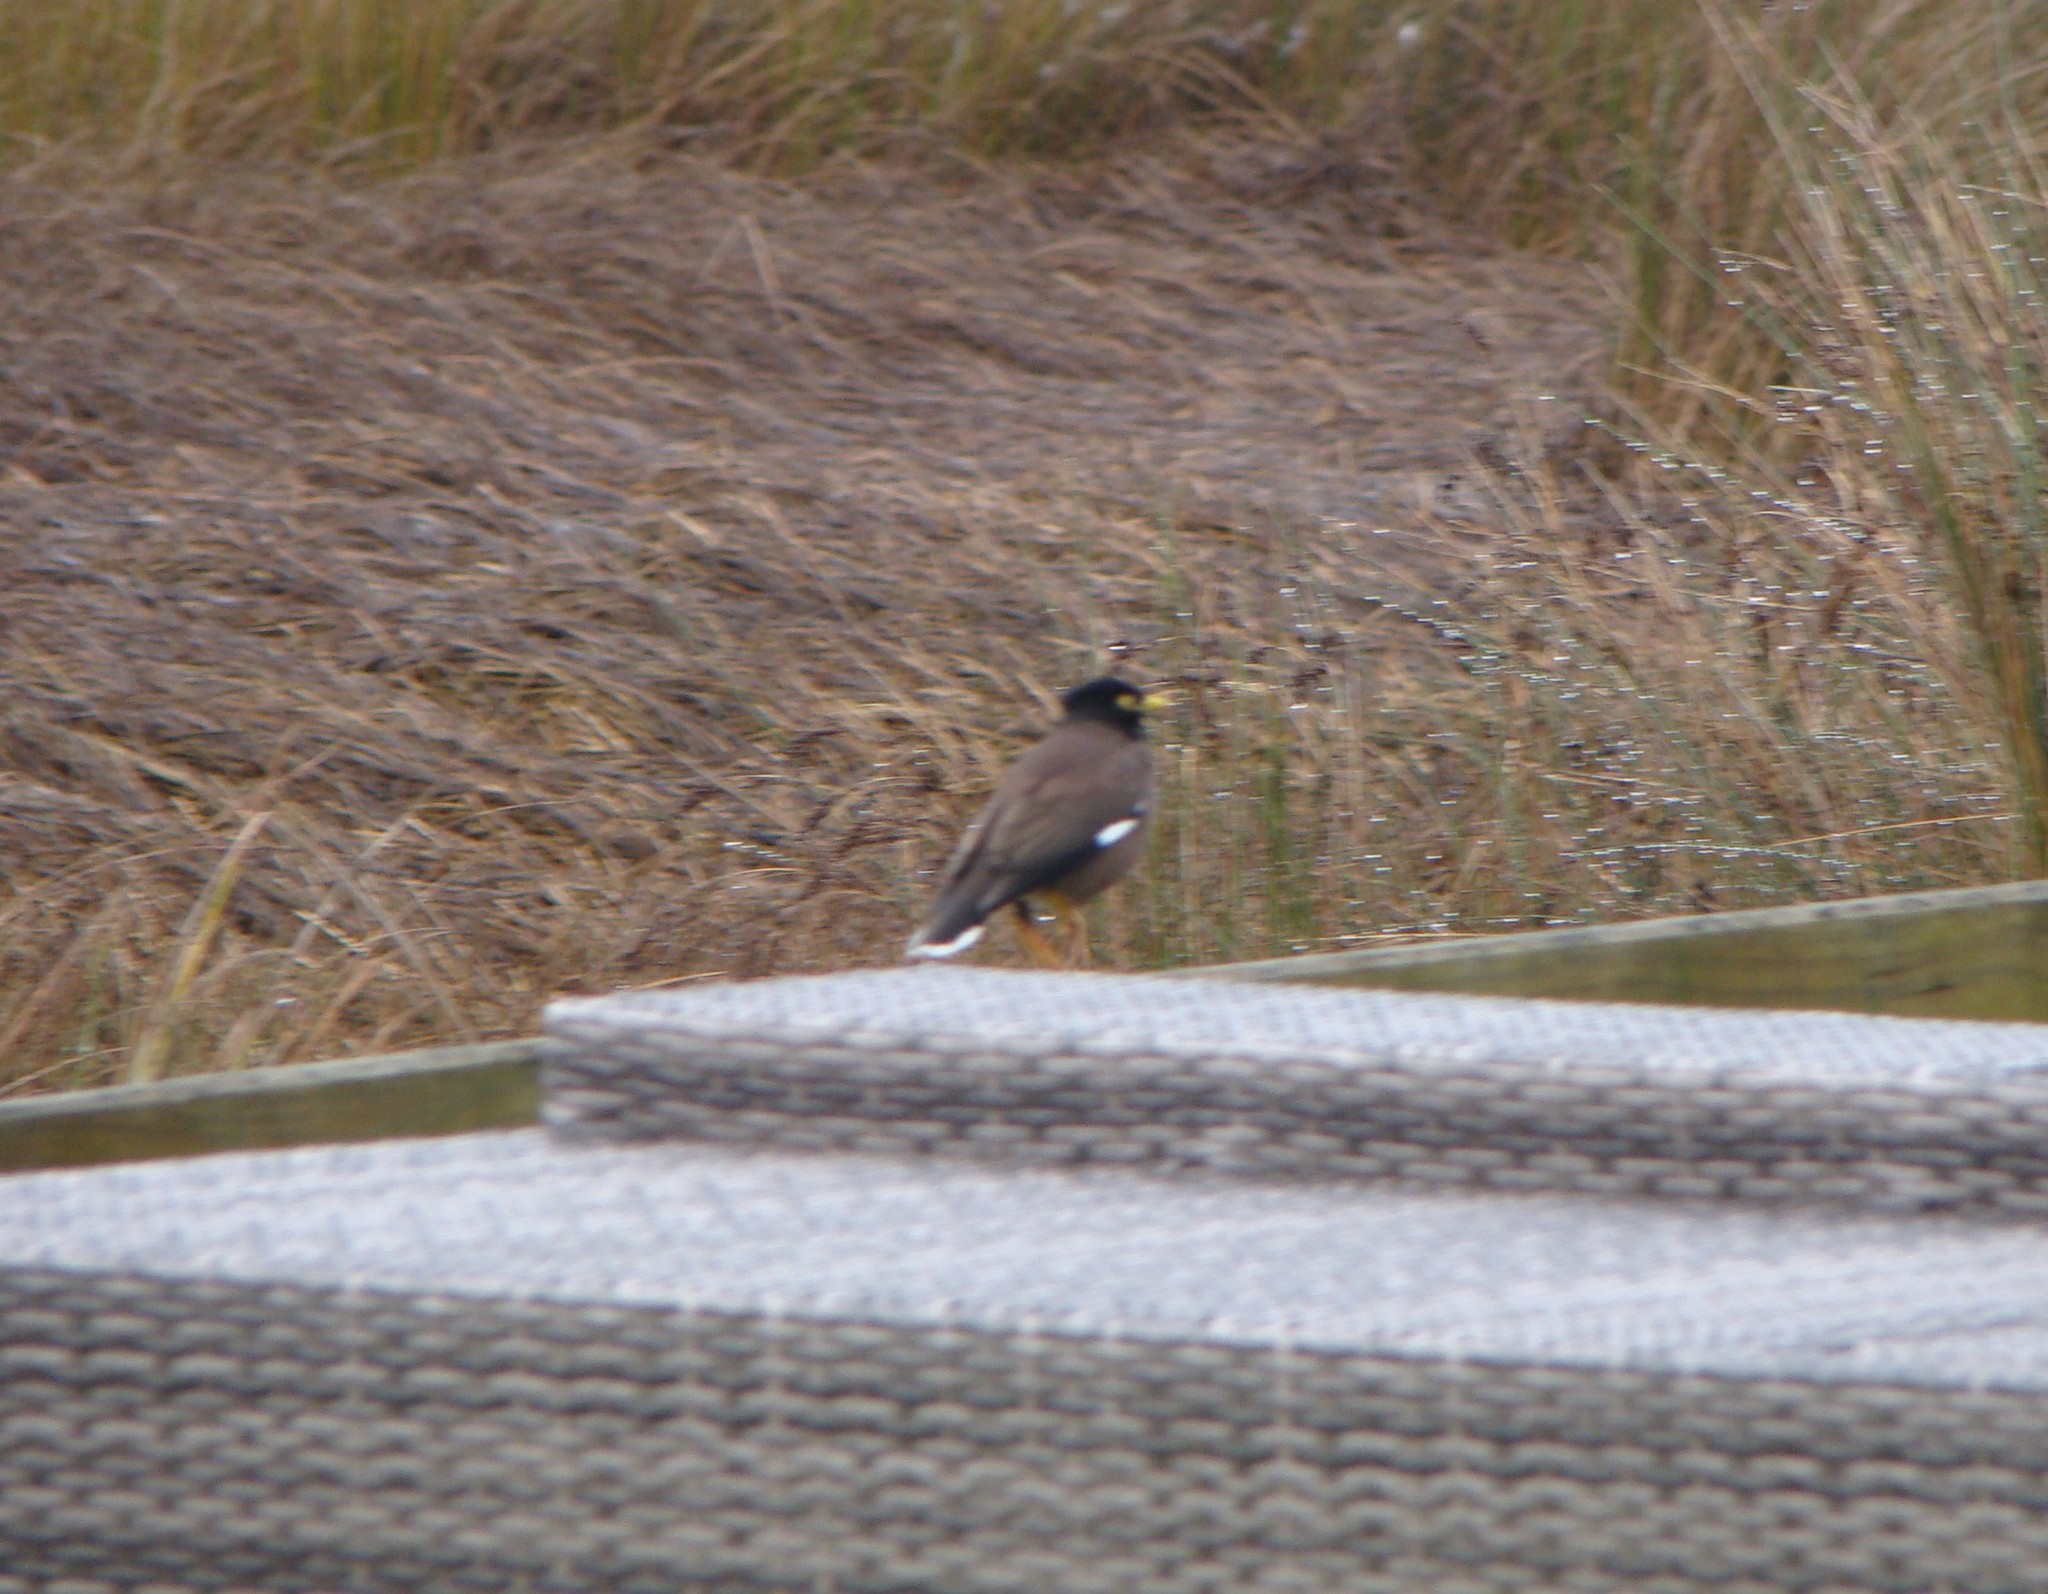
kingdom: Animalia
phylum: Chordata
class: Aves
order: Passeriformes
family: Sturnidae
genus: Acridotheres
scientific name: Acridotheres tristis
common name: Common myna
